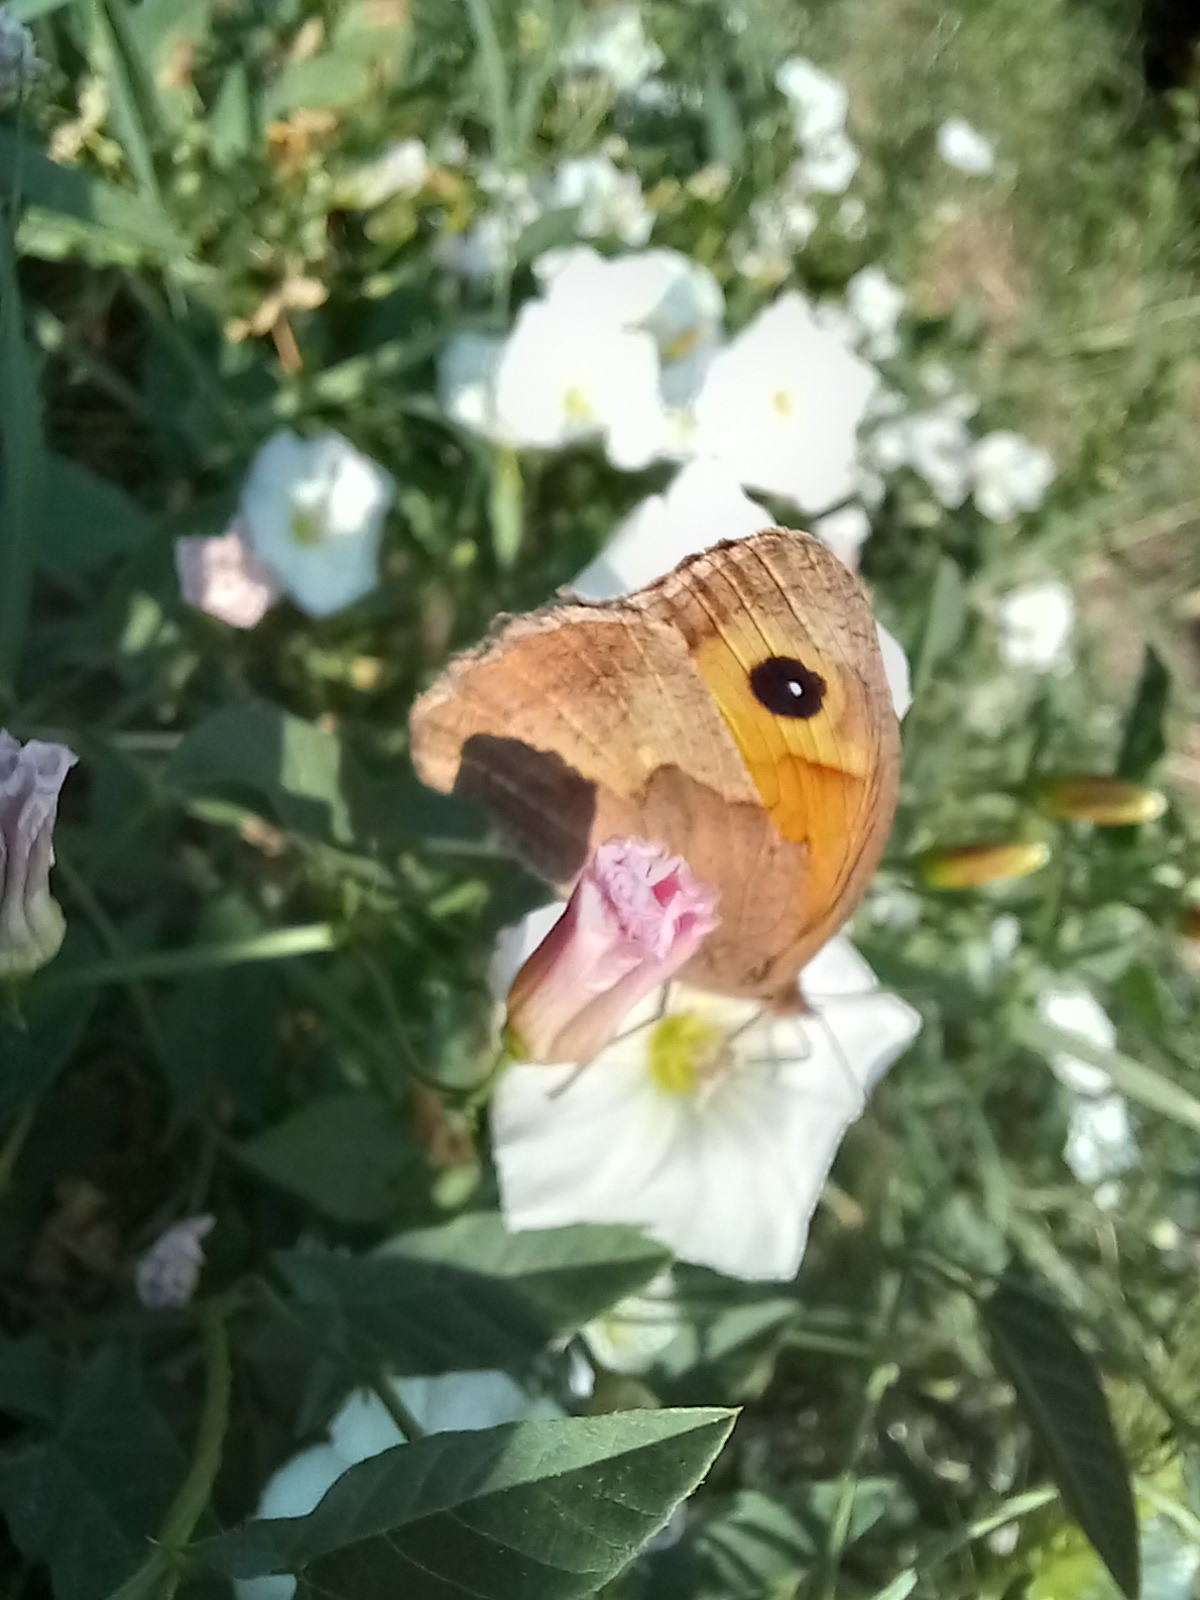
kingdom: Animalia
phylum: Arthropoda
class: Insecta
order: Lepidoptera
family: Nymphalidae
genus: Maniola
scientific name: Maniola jurtina
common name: Meadow brown
